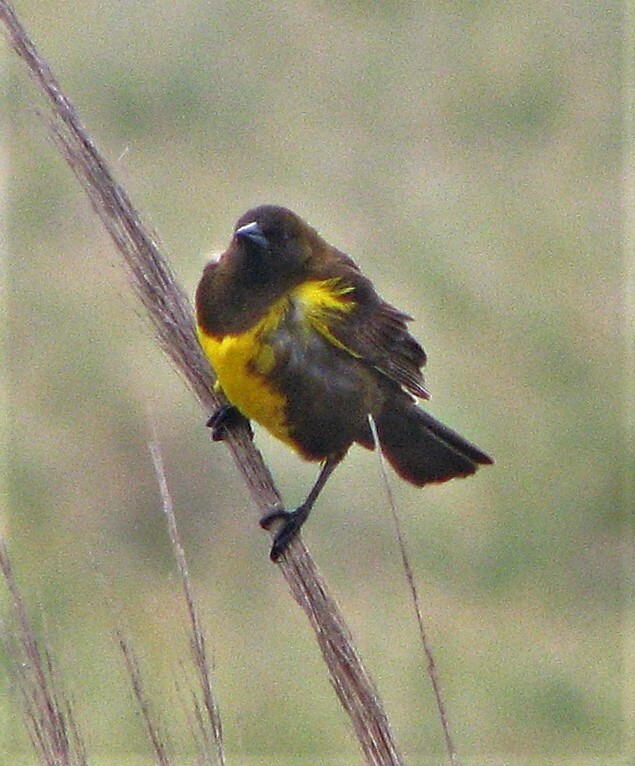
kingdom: Animalia
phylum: Chordata
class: Aves
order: Passeriformes
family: Icteridae
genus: Pseudoleistes
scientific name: Pseudoleistes virescens
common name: Brown-and-yellow marshbird
